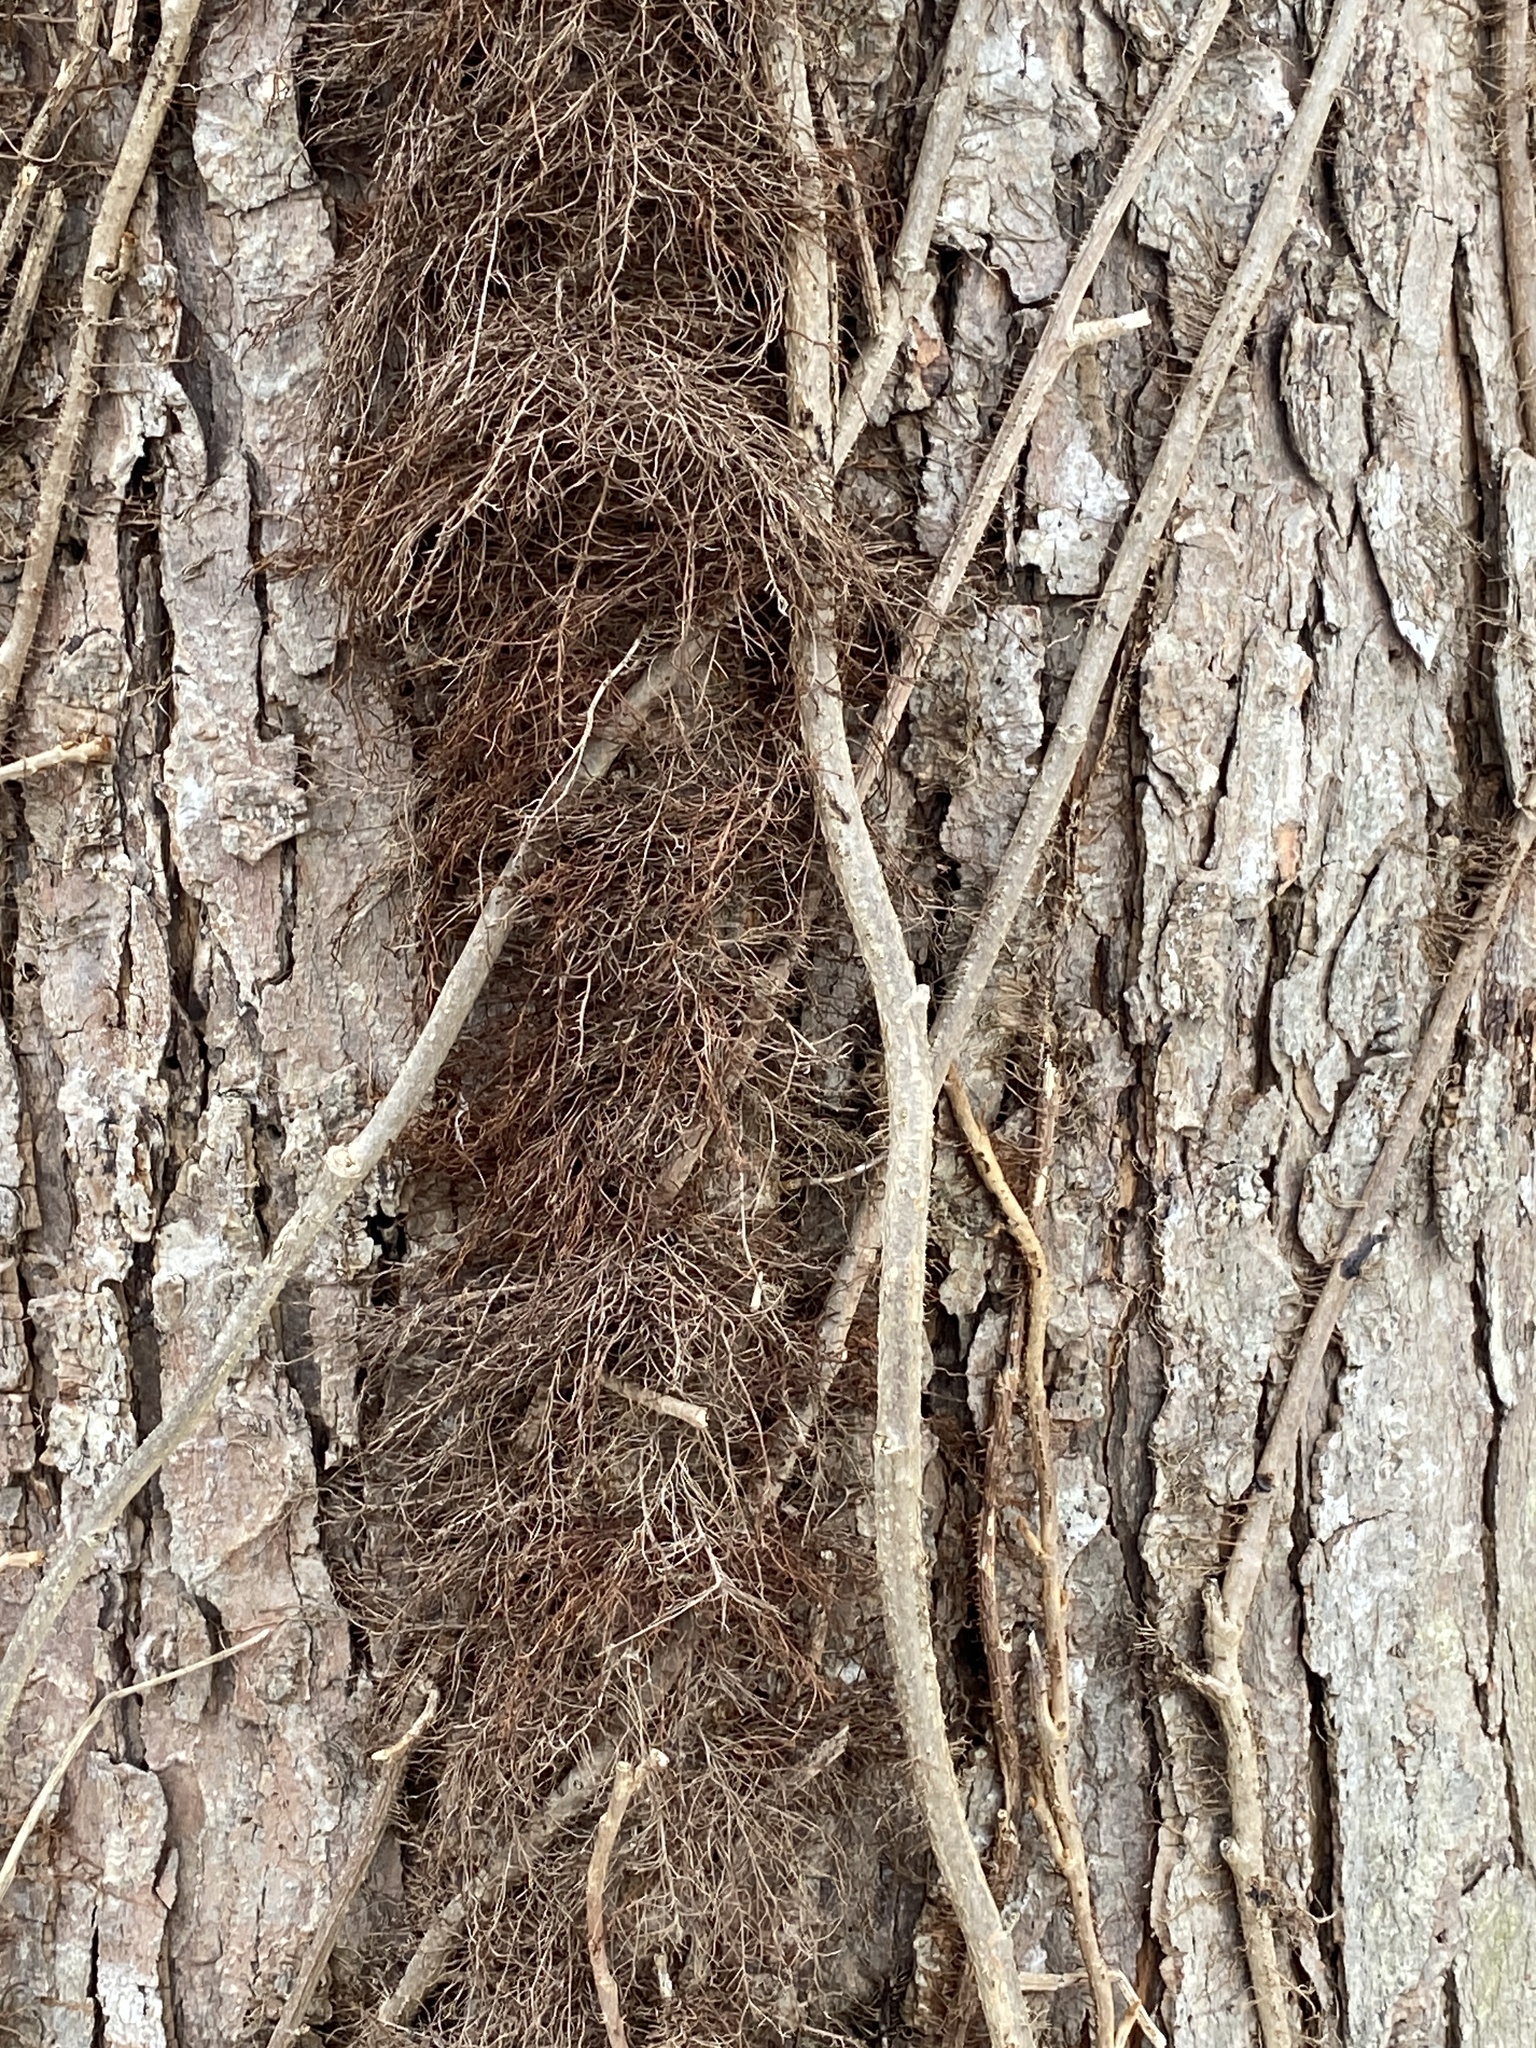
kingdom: Plantae
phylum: Tracheophyta
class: Magnoliopsida
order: Sapindales
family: Anacardiaceae
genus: Toxicodendron
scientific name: Toxicodendron radicans
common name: Poison ivy
